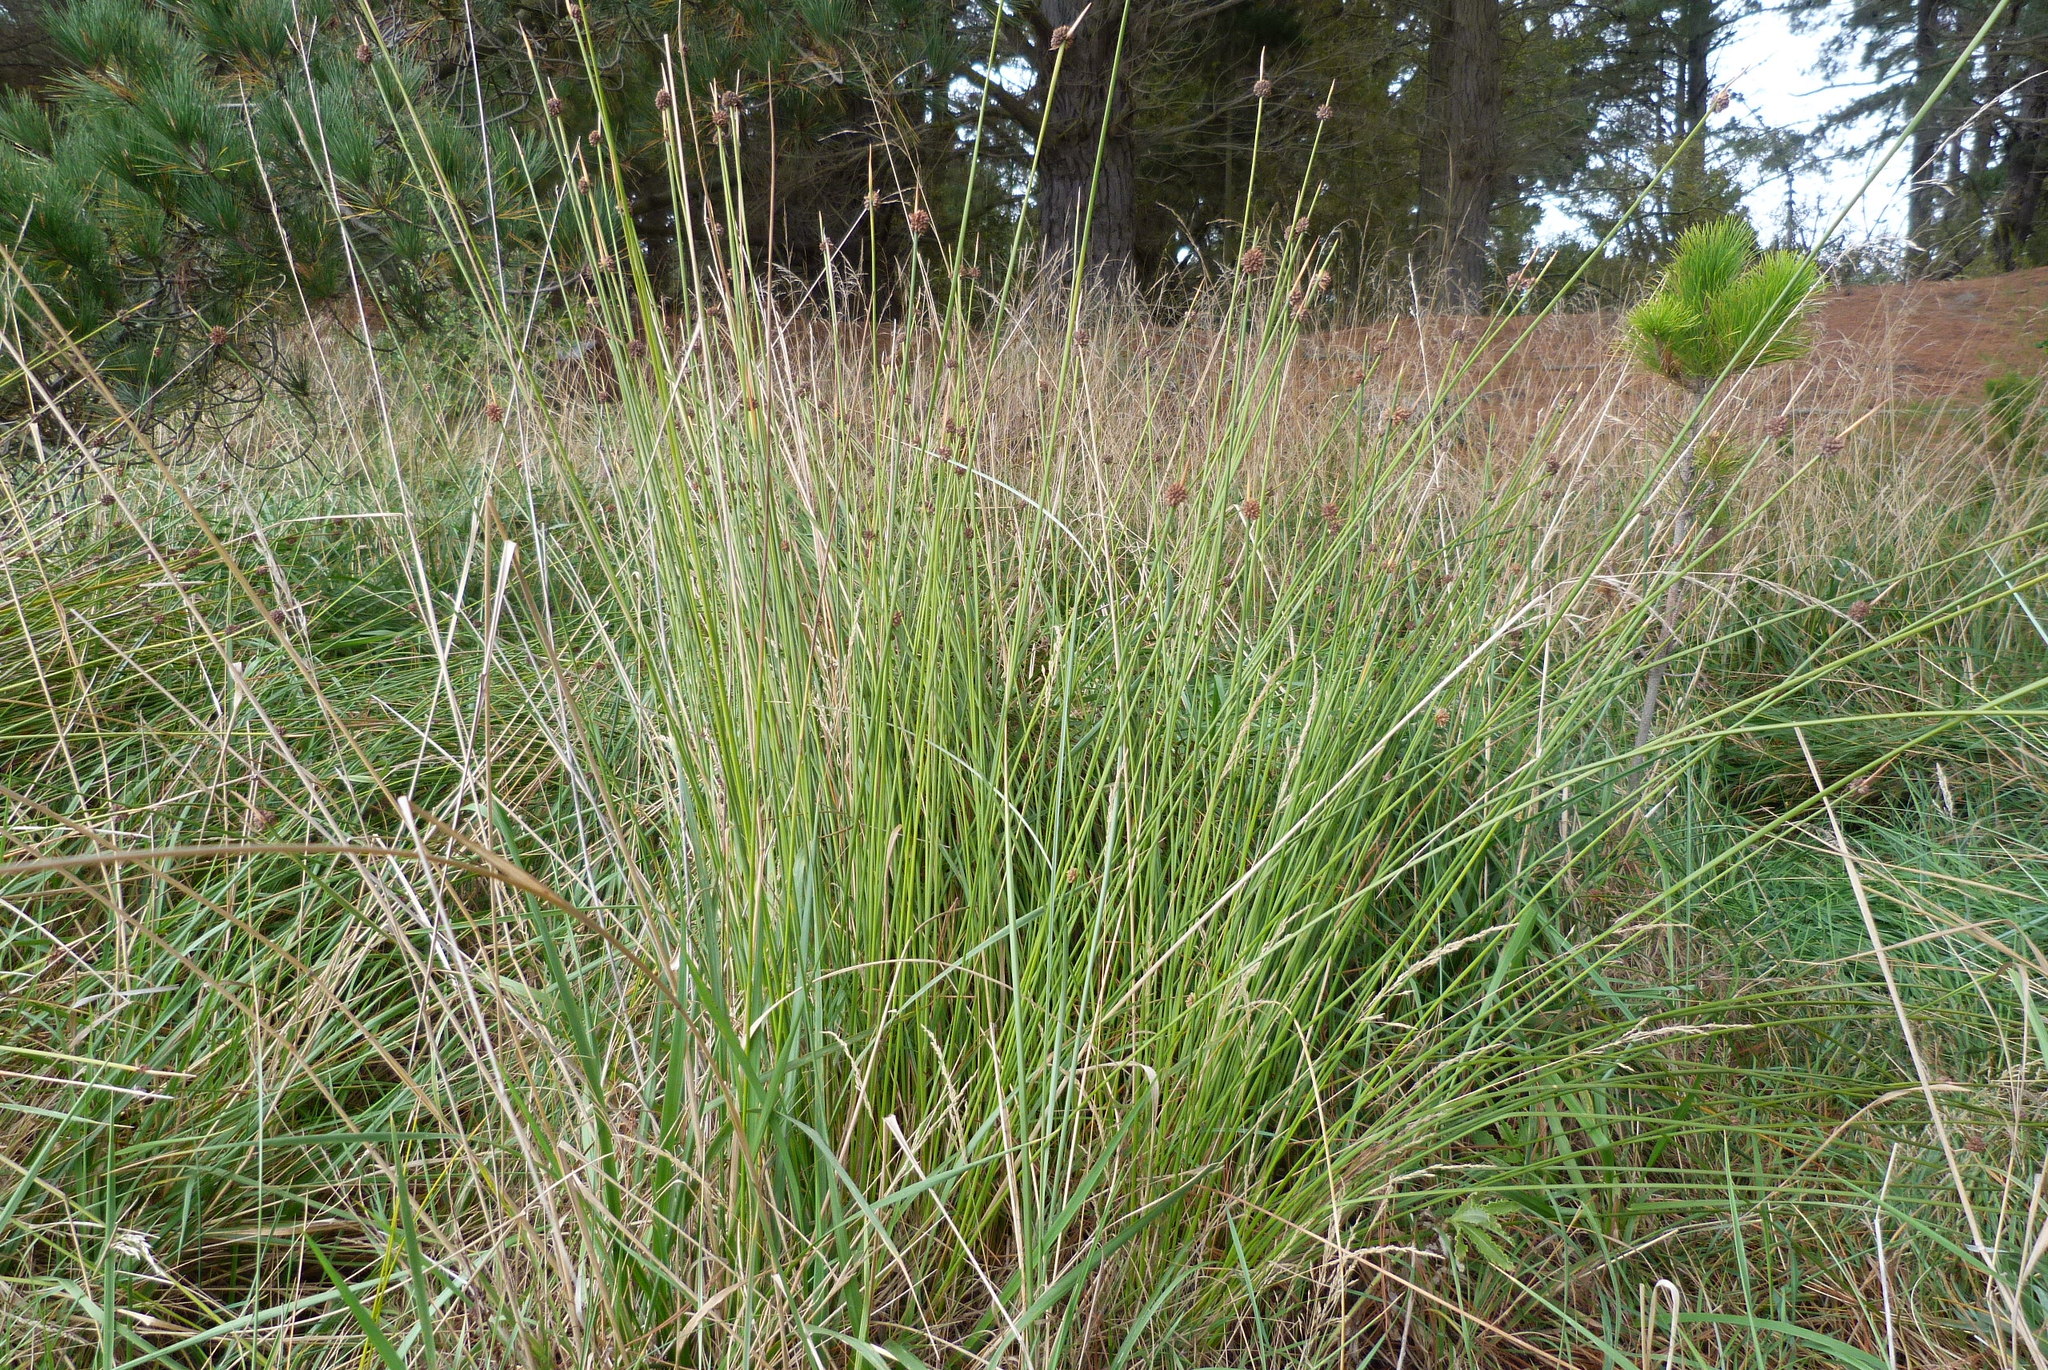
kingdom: Plantae
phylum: Tracheophyta
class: Liliopsida
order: Poales
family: Cyperaceae
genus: Ficinia
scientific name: Ficinia nodosa
